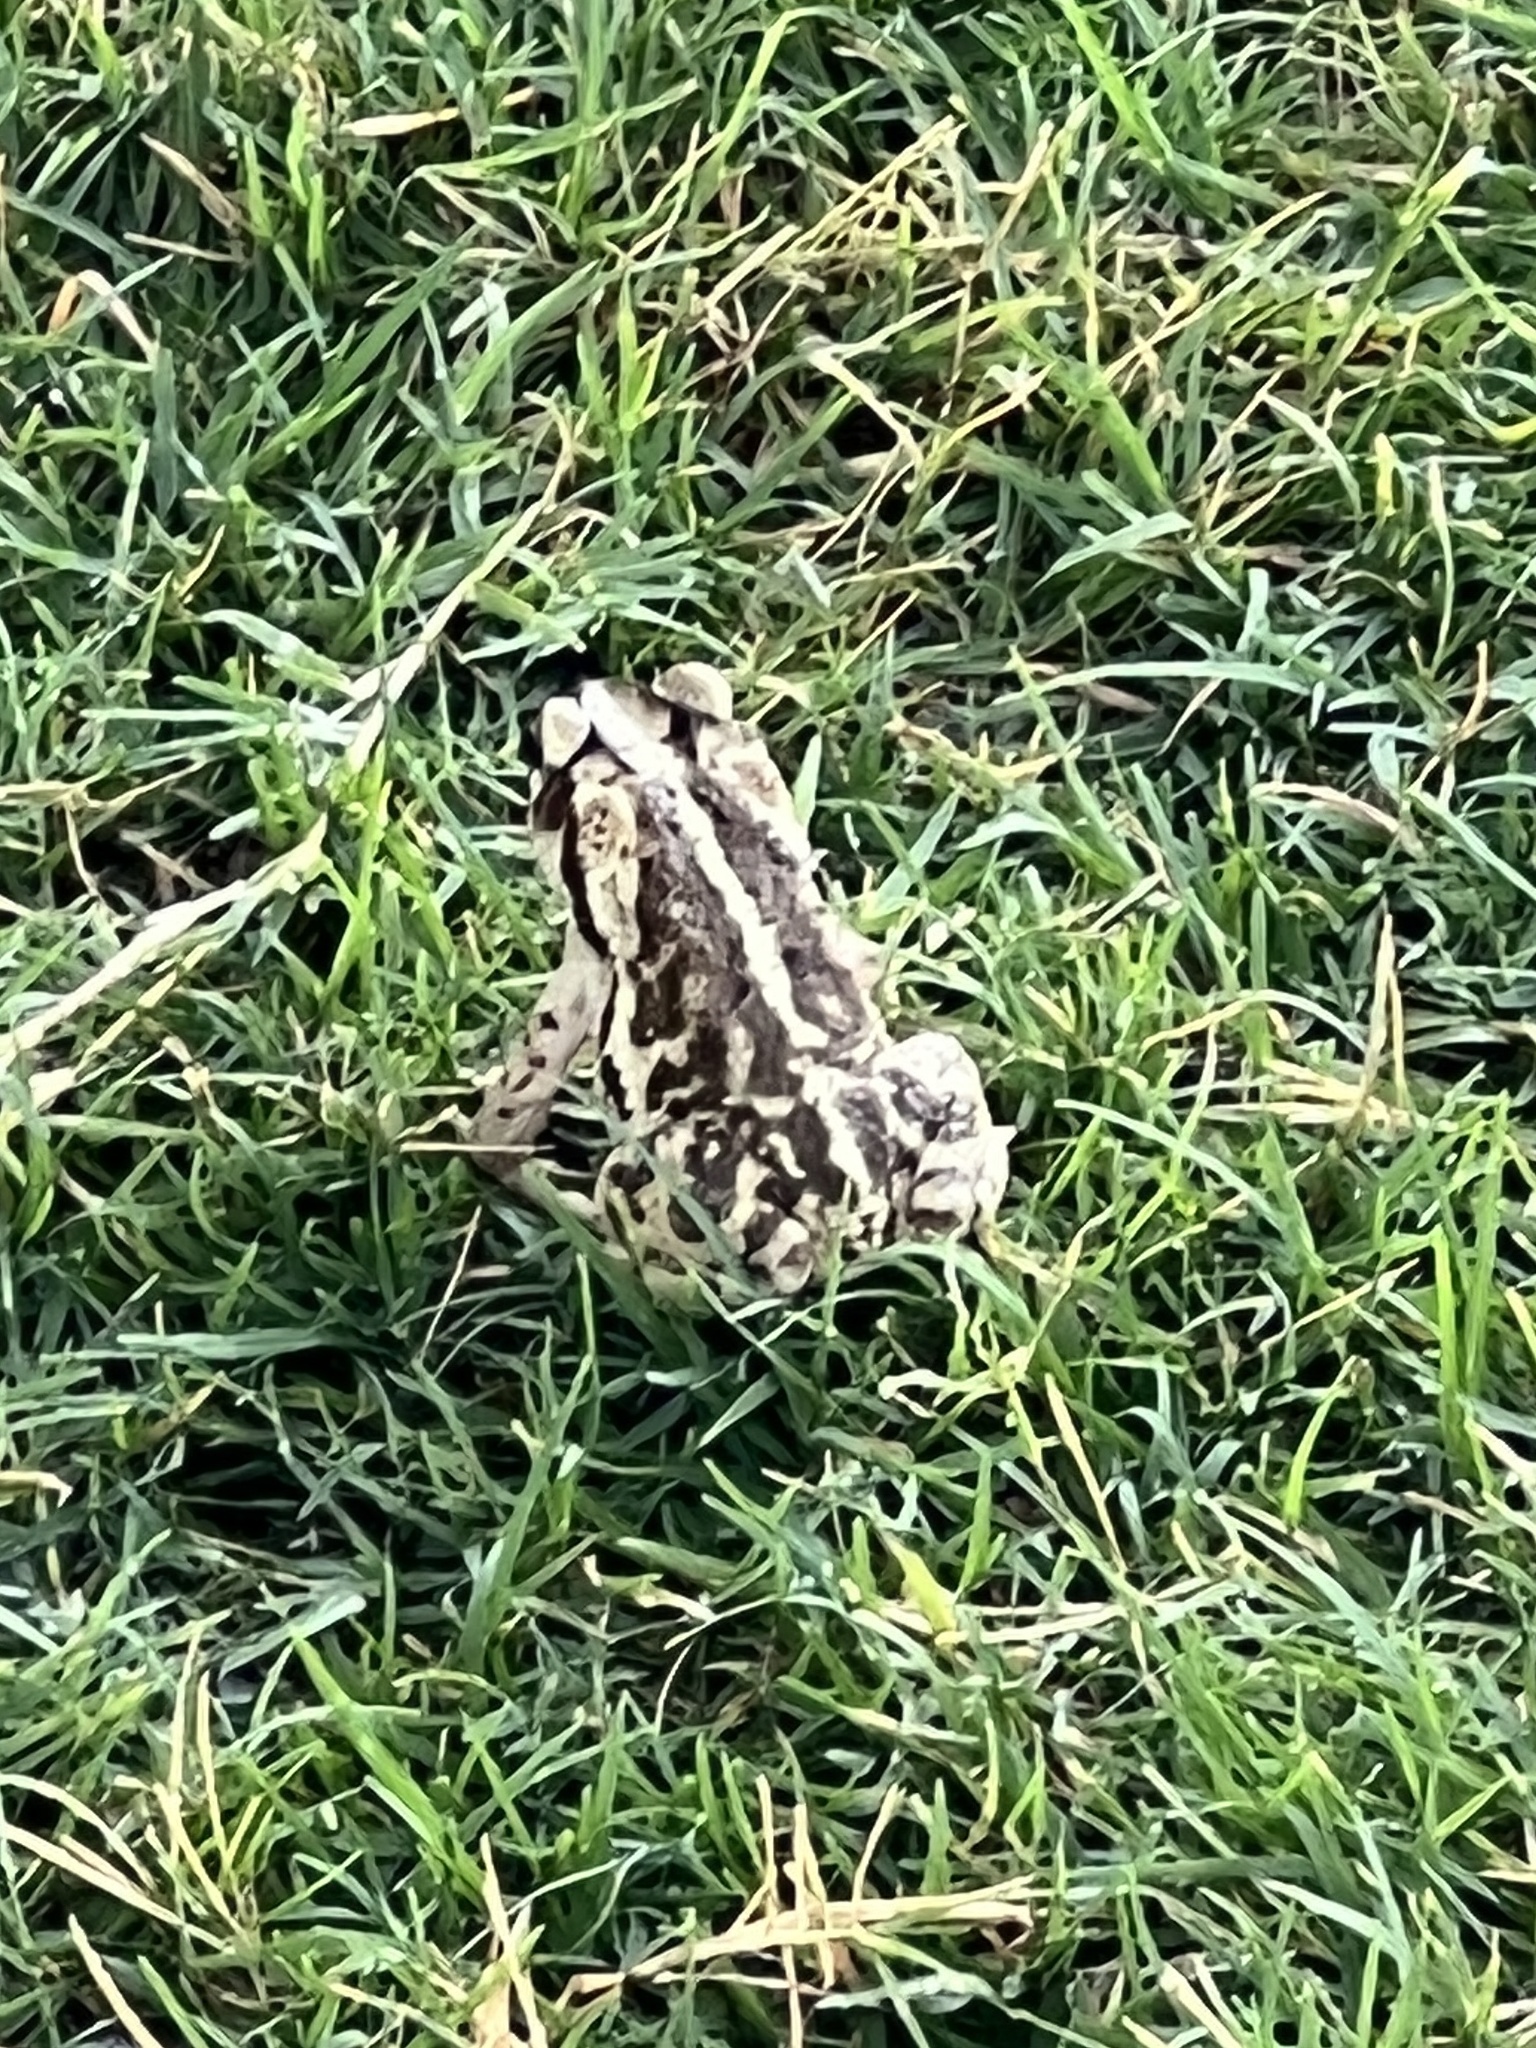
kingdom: Animalia
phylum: Chordata
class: Amphibia
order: Anura
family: Bufonidae
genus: Incilius
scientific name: Incilius nebulifer
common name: Gulf coast toad
